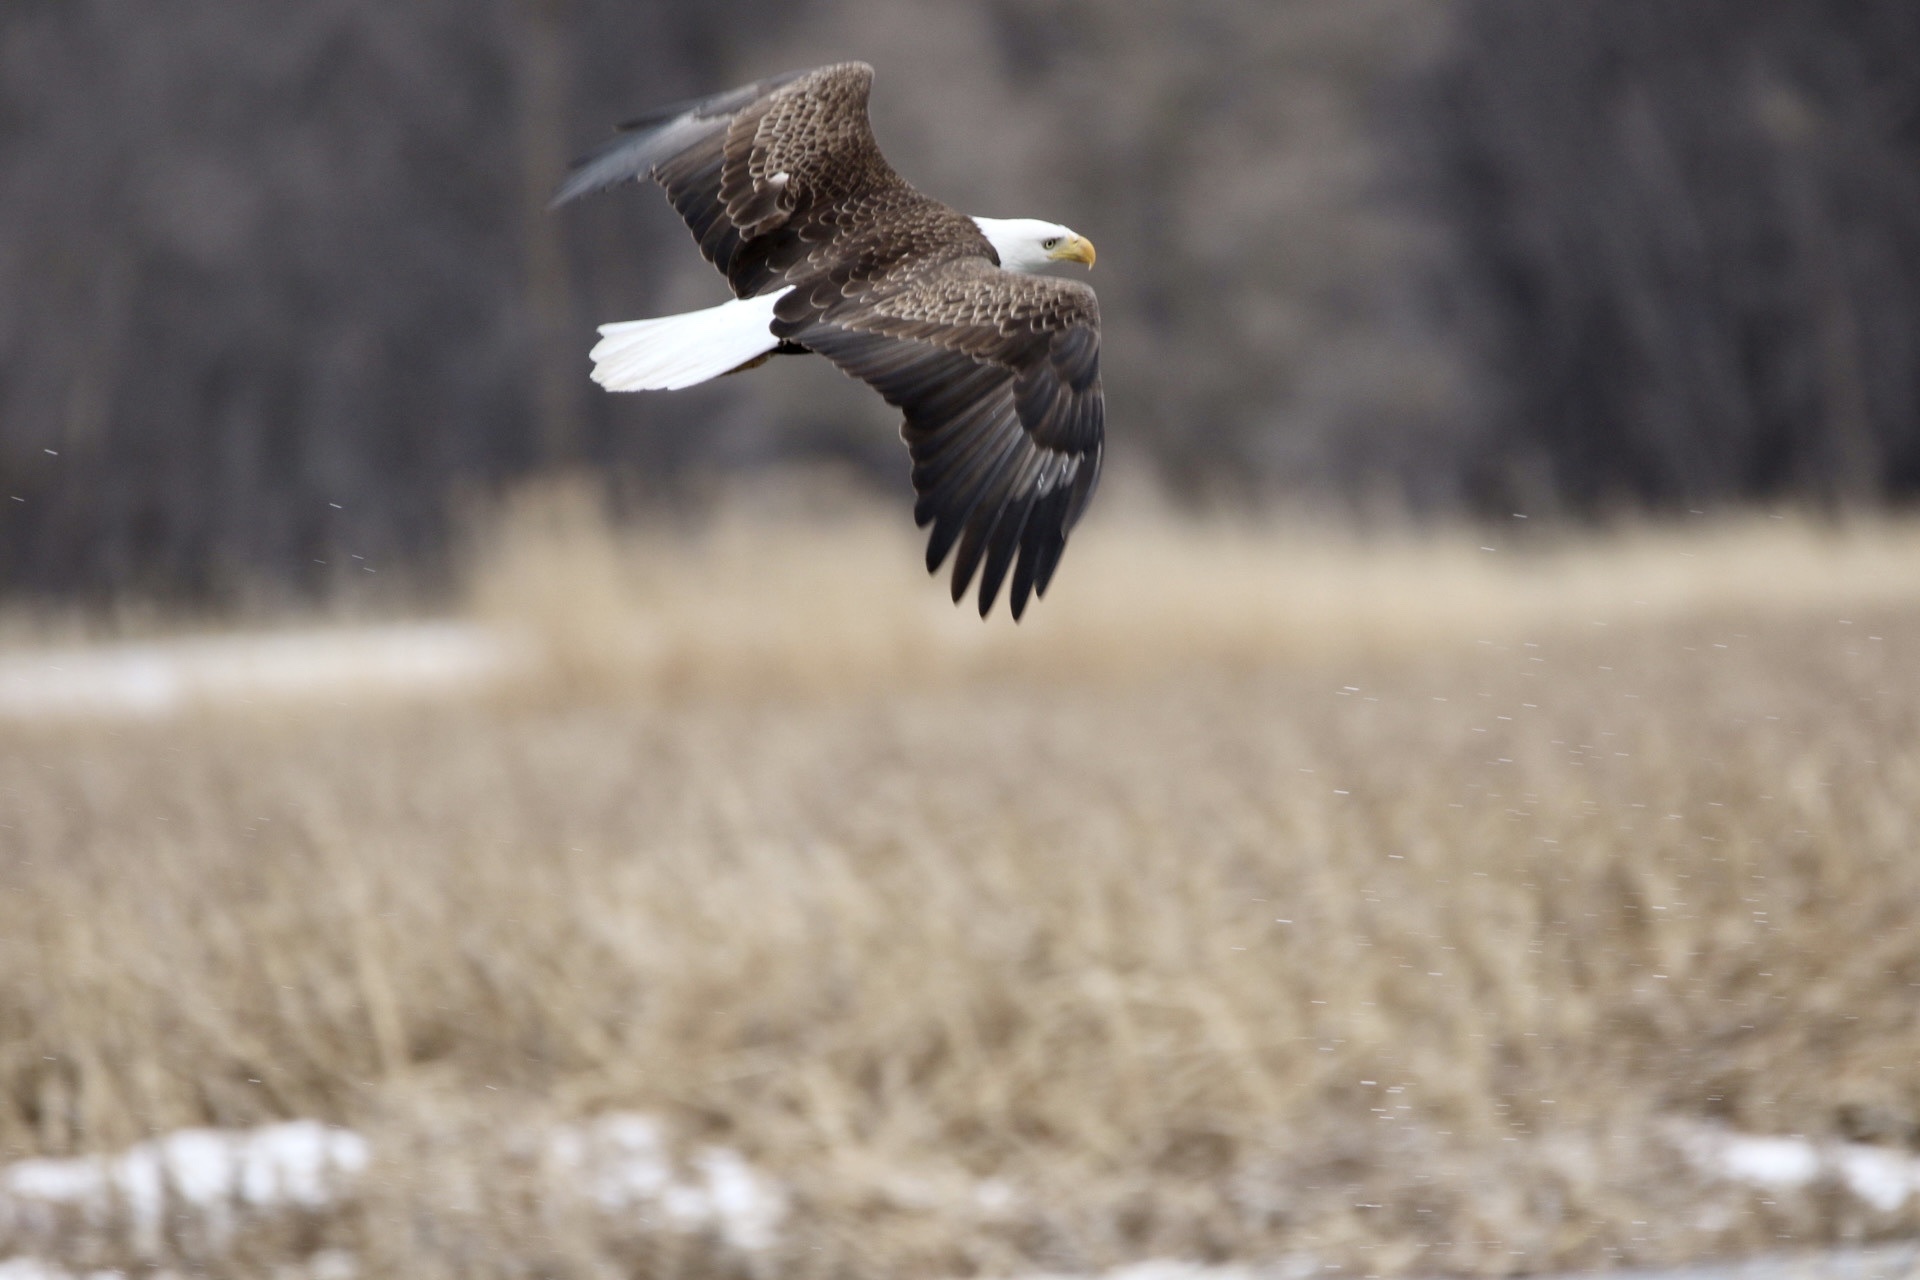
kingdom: Animalia
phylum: Chordata
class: Aves
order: Accipitriformes
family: Accipitridae
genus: Haliaeetus
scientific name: Haliaeetus leucocephalus
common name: Bald eagle
